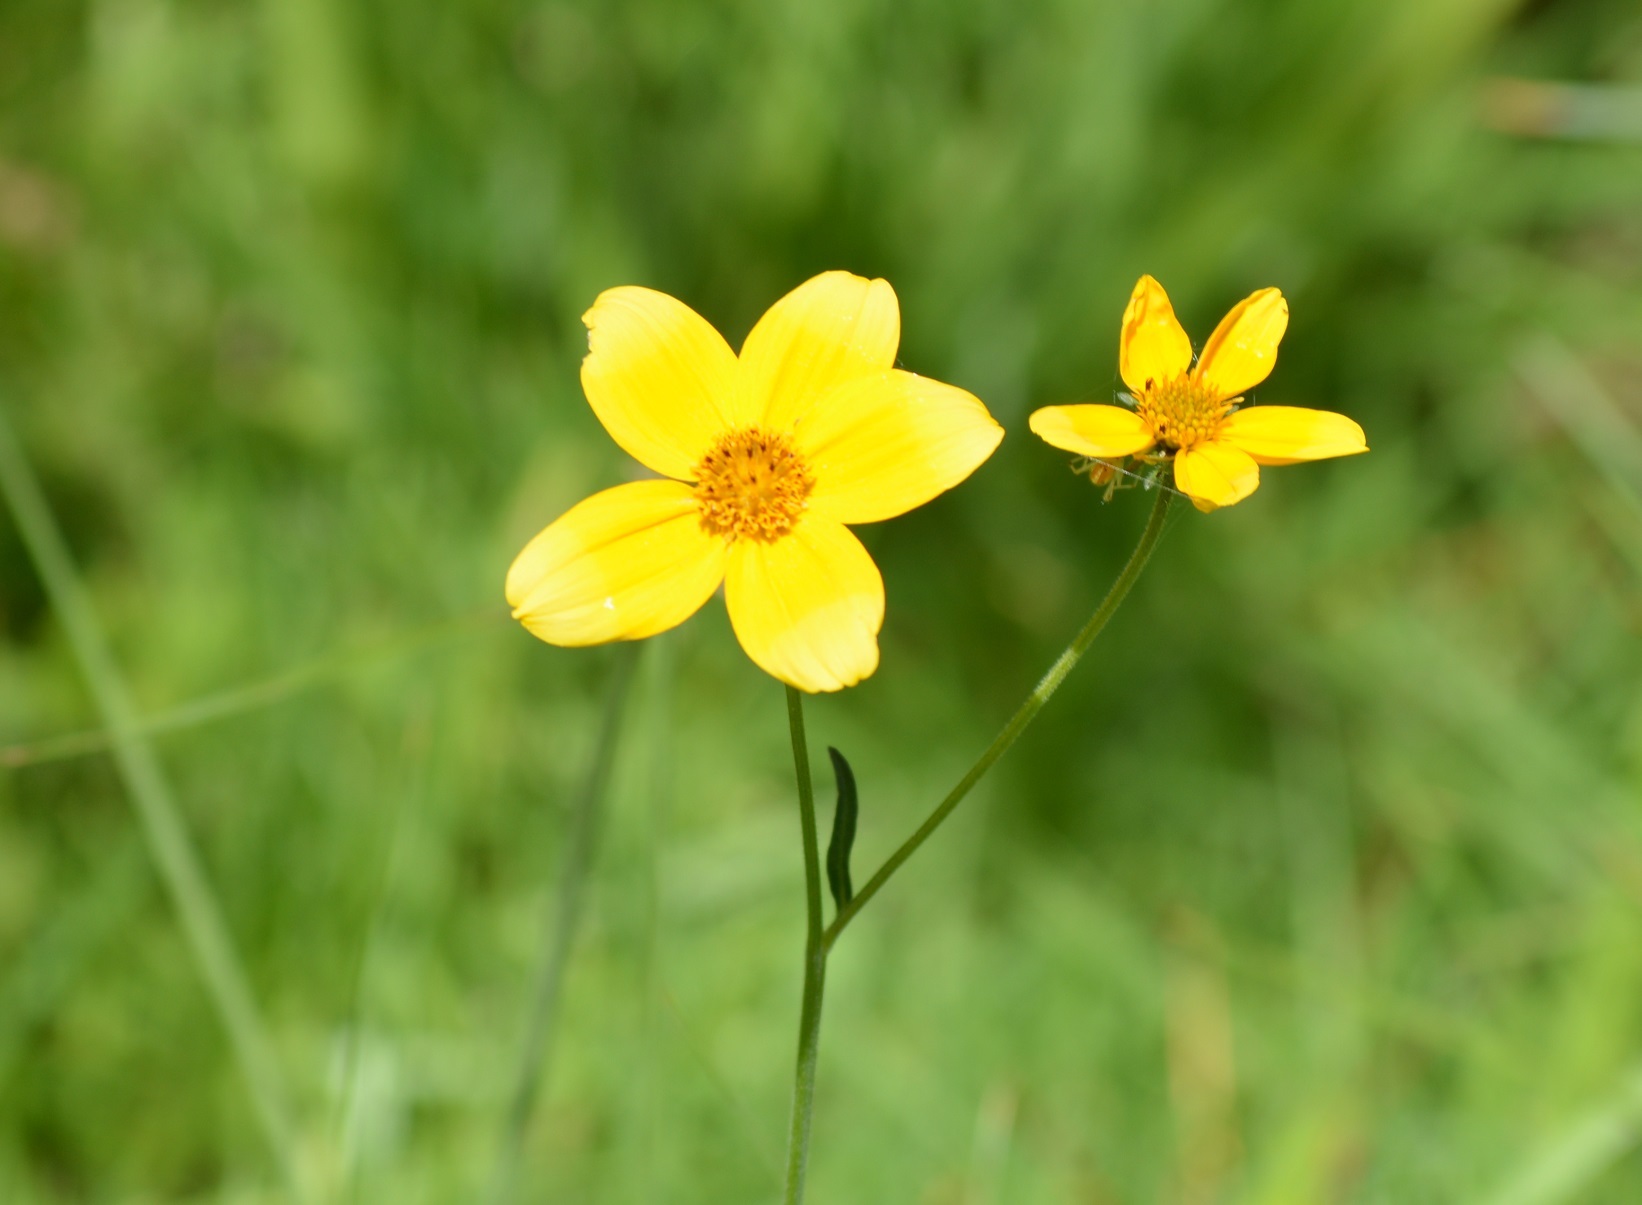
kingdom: Plantae
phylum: Tracheophyta
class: Magnoliopsida
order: Asterales
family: Asteraceae
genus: Bidens
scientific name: Bidens aurea
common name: Arizona beggar-ticks
